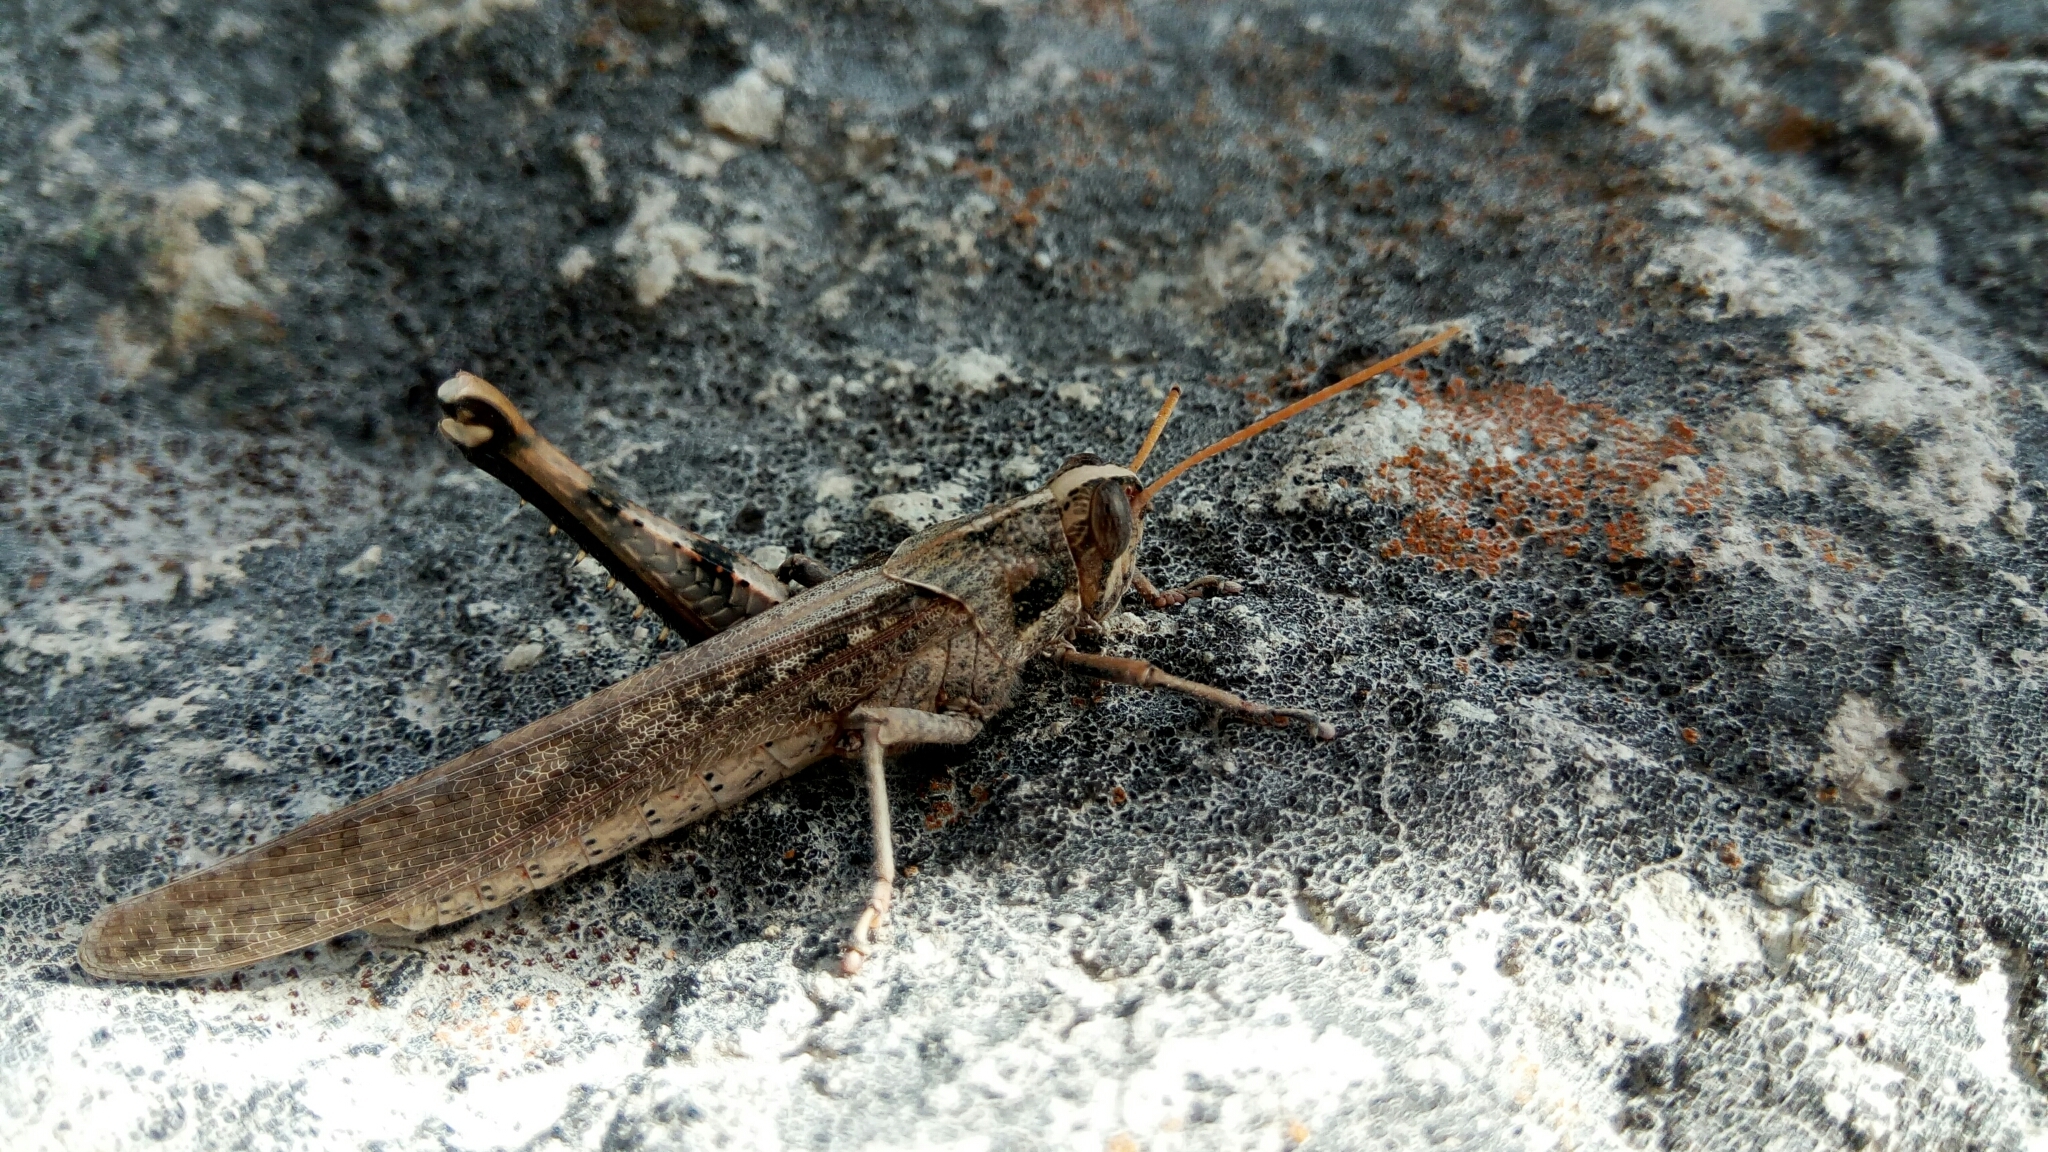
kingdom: Animalia
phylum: Arthropoda
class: Insecta
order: Orthoptera
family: Acrididae
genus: Schistocerca
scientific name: Schistocerca nitens
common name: Vagrant grasshopper
